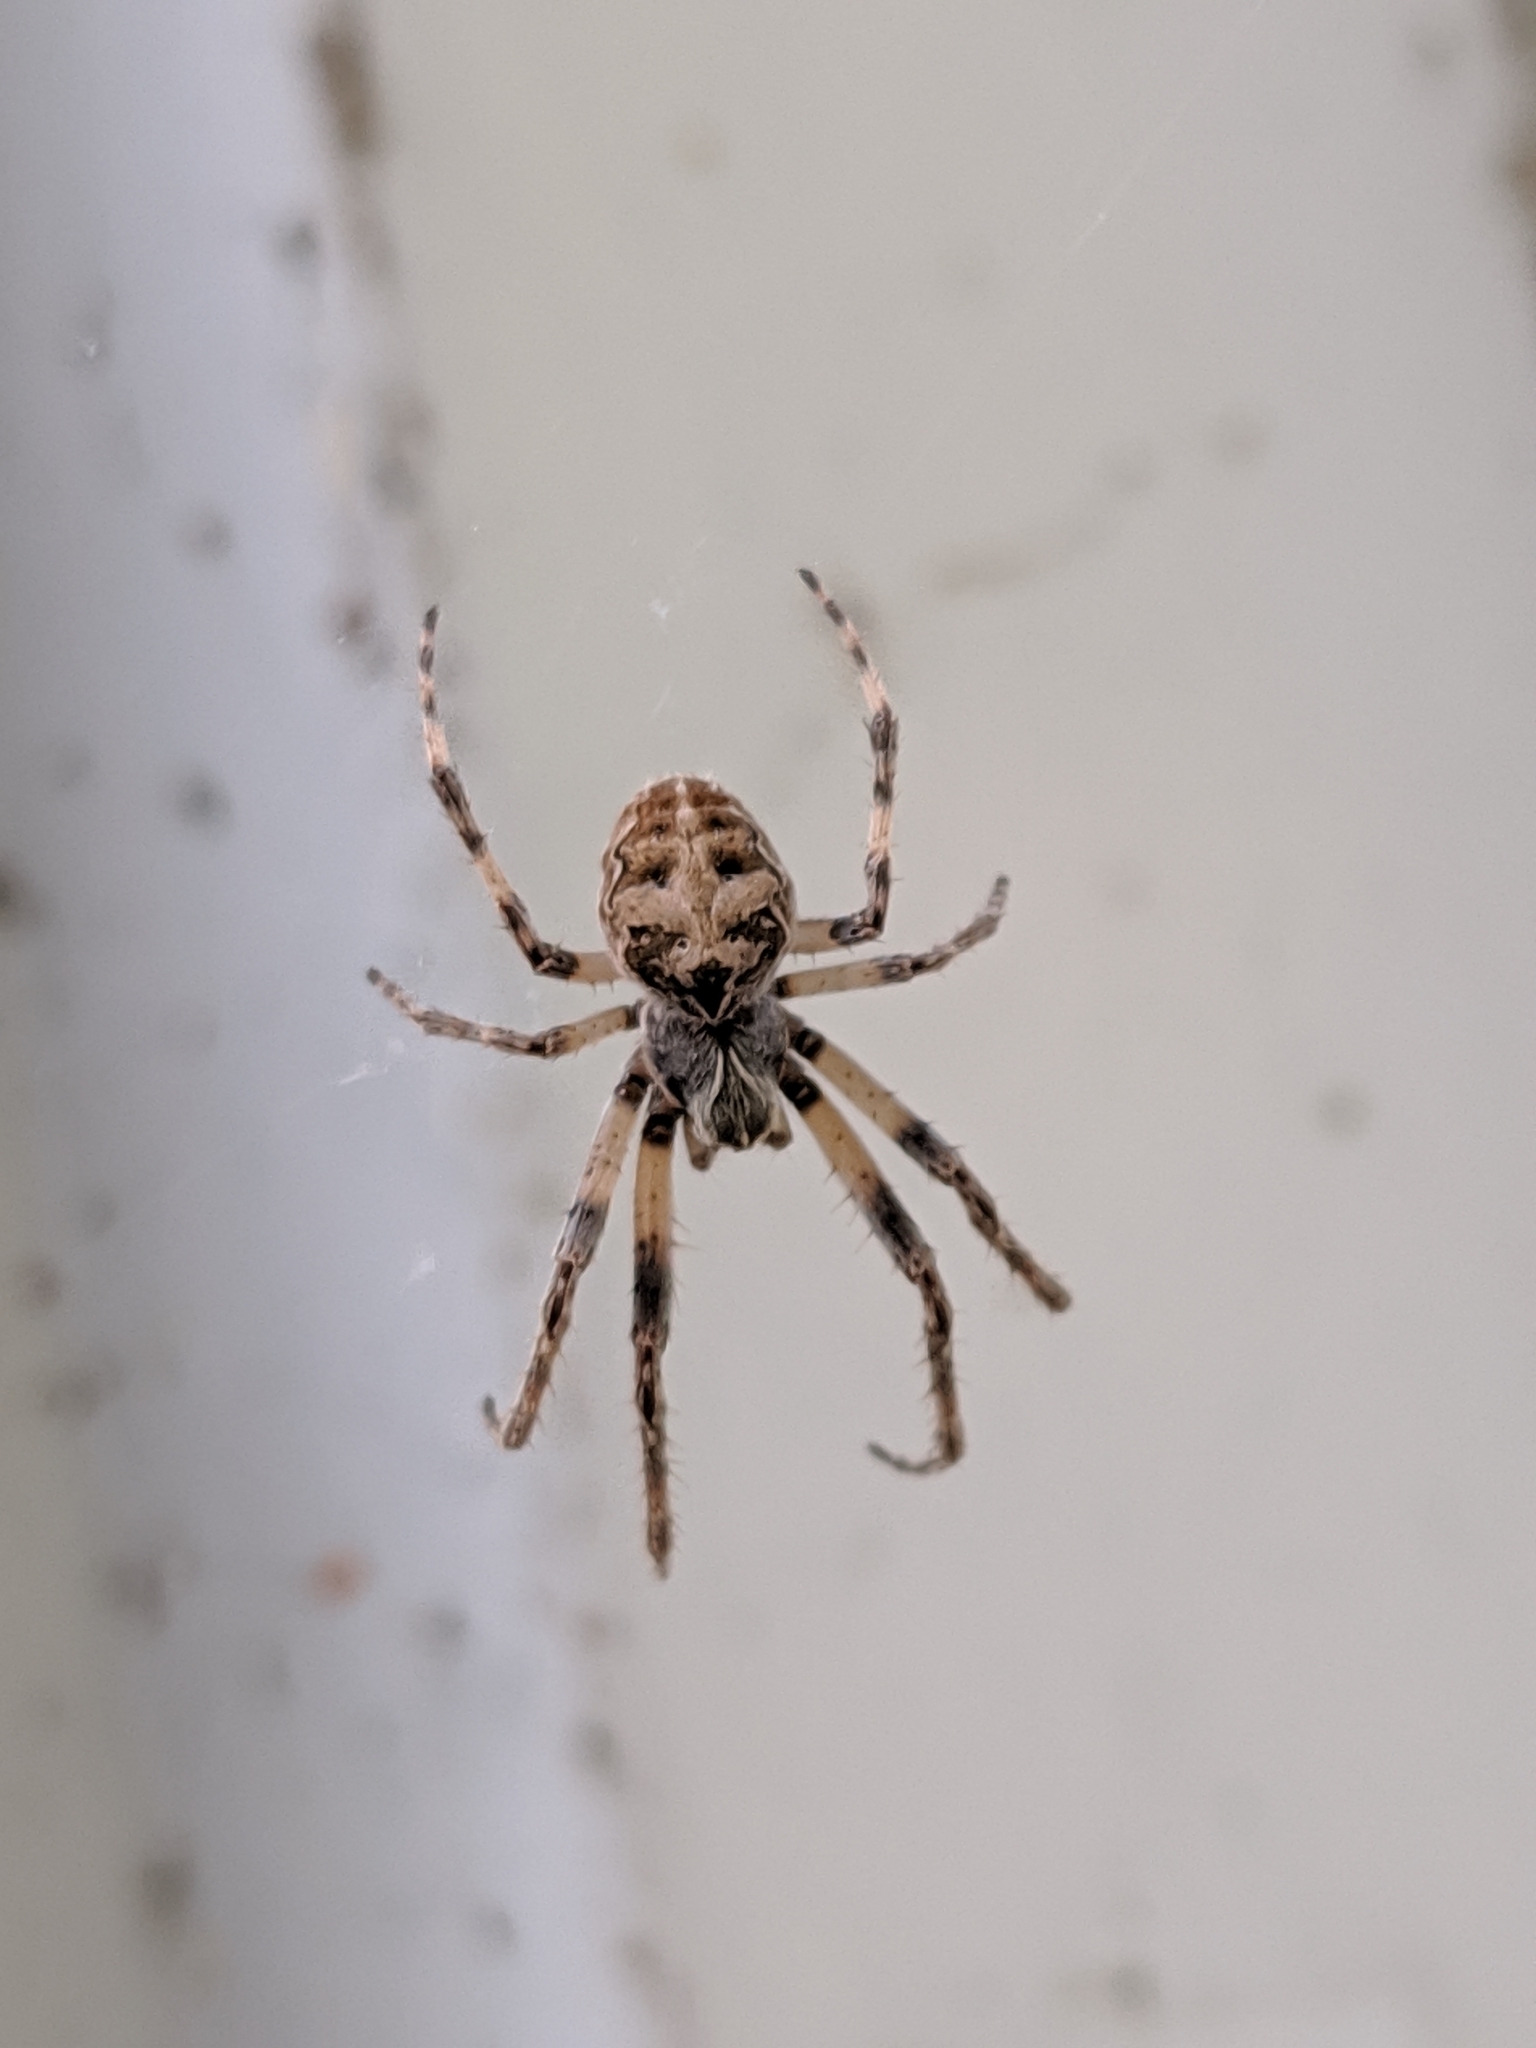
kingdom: Animalia
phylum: Arthropoda
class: Arachnida
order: Araneae
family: Araneidae
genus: Larinioides
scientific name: Larinioides sclopetarius
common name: Bridge orbweaver
